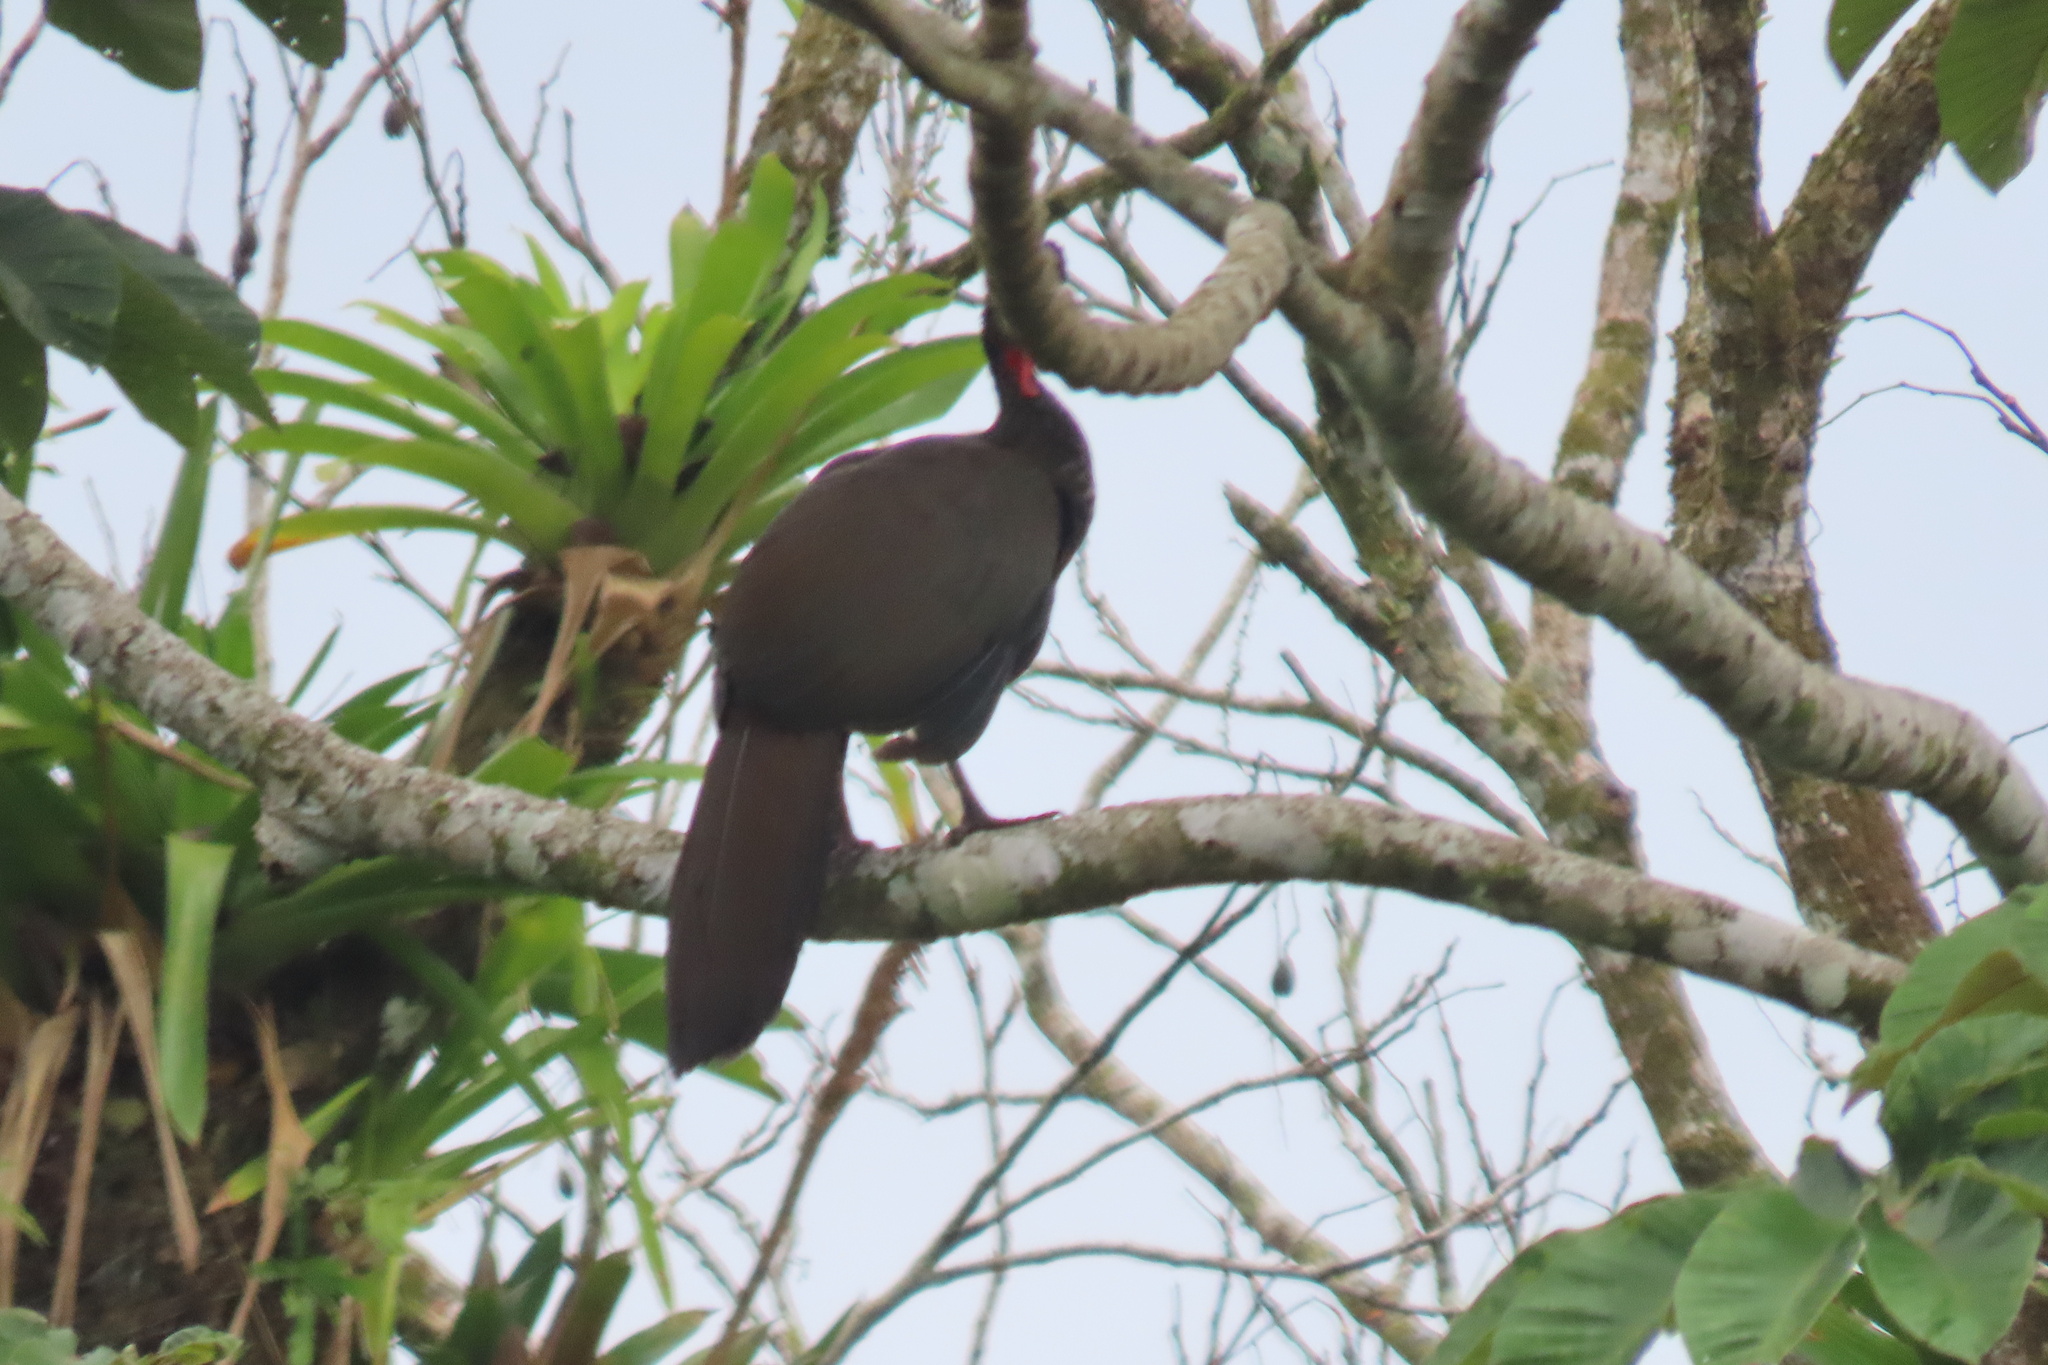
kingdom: Animalia
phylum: Chordata
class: Aves
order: Galliformes
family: Cracidae
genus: Penelope
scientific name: Penelope purpurascens
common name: Crested guan
